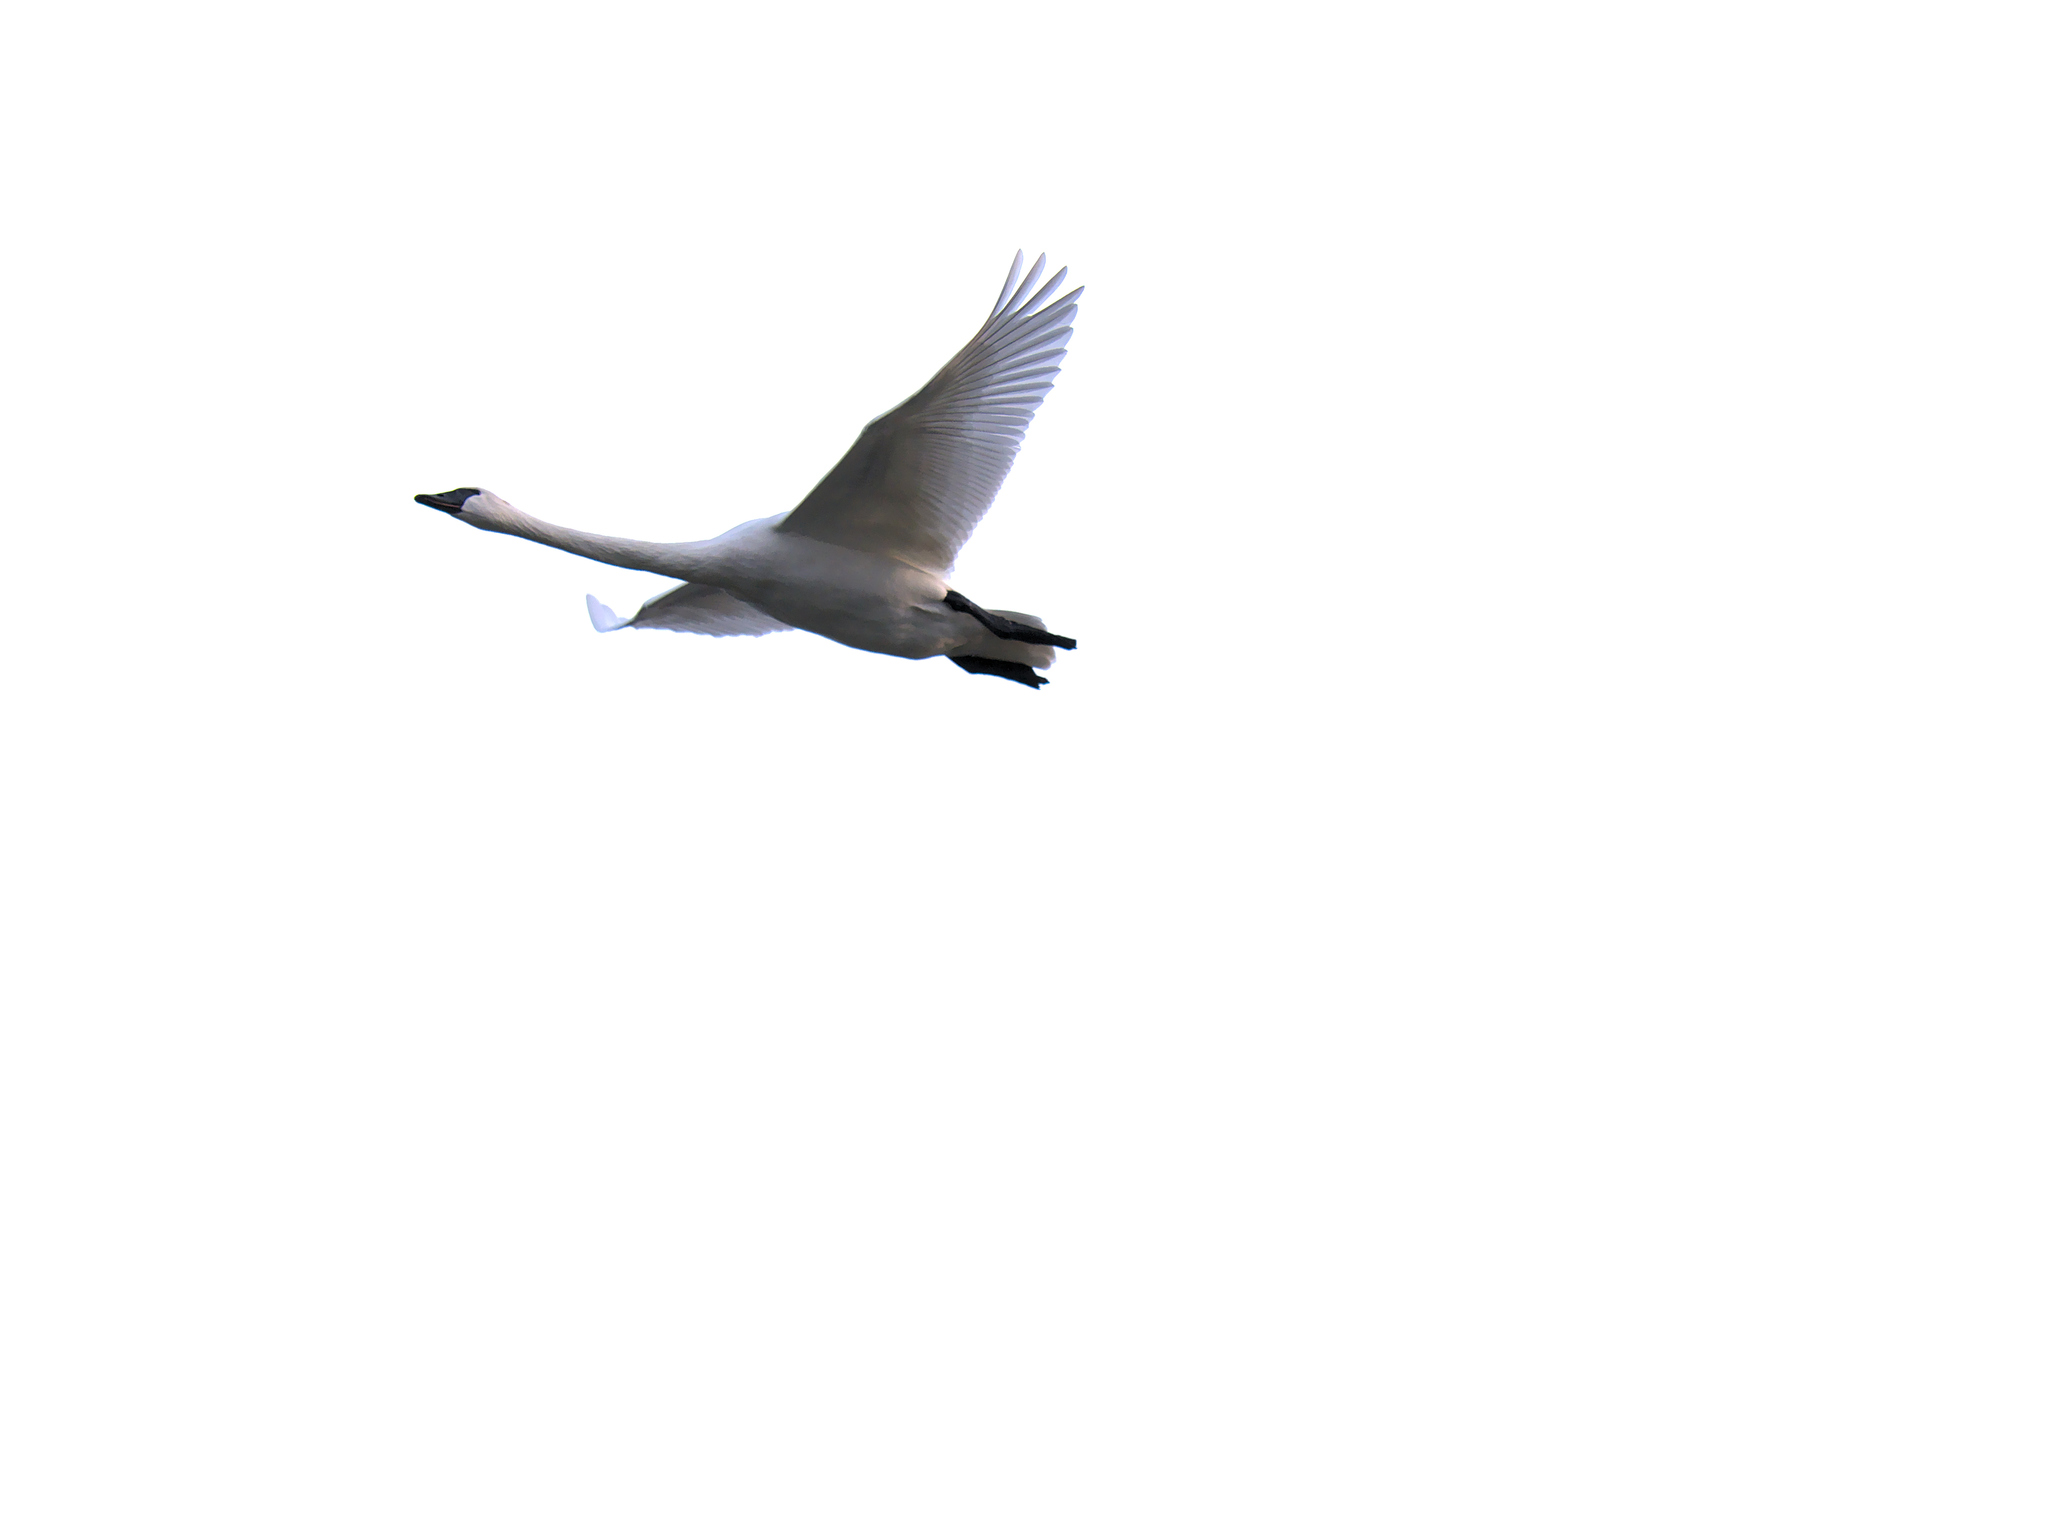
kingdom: Animalia
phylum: Chordata
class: Aves
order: Anseriformes
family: Anatidae
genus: Cygnus
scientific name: Cygnus buccinator
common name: Trumpeter swan
